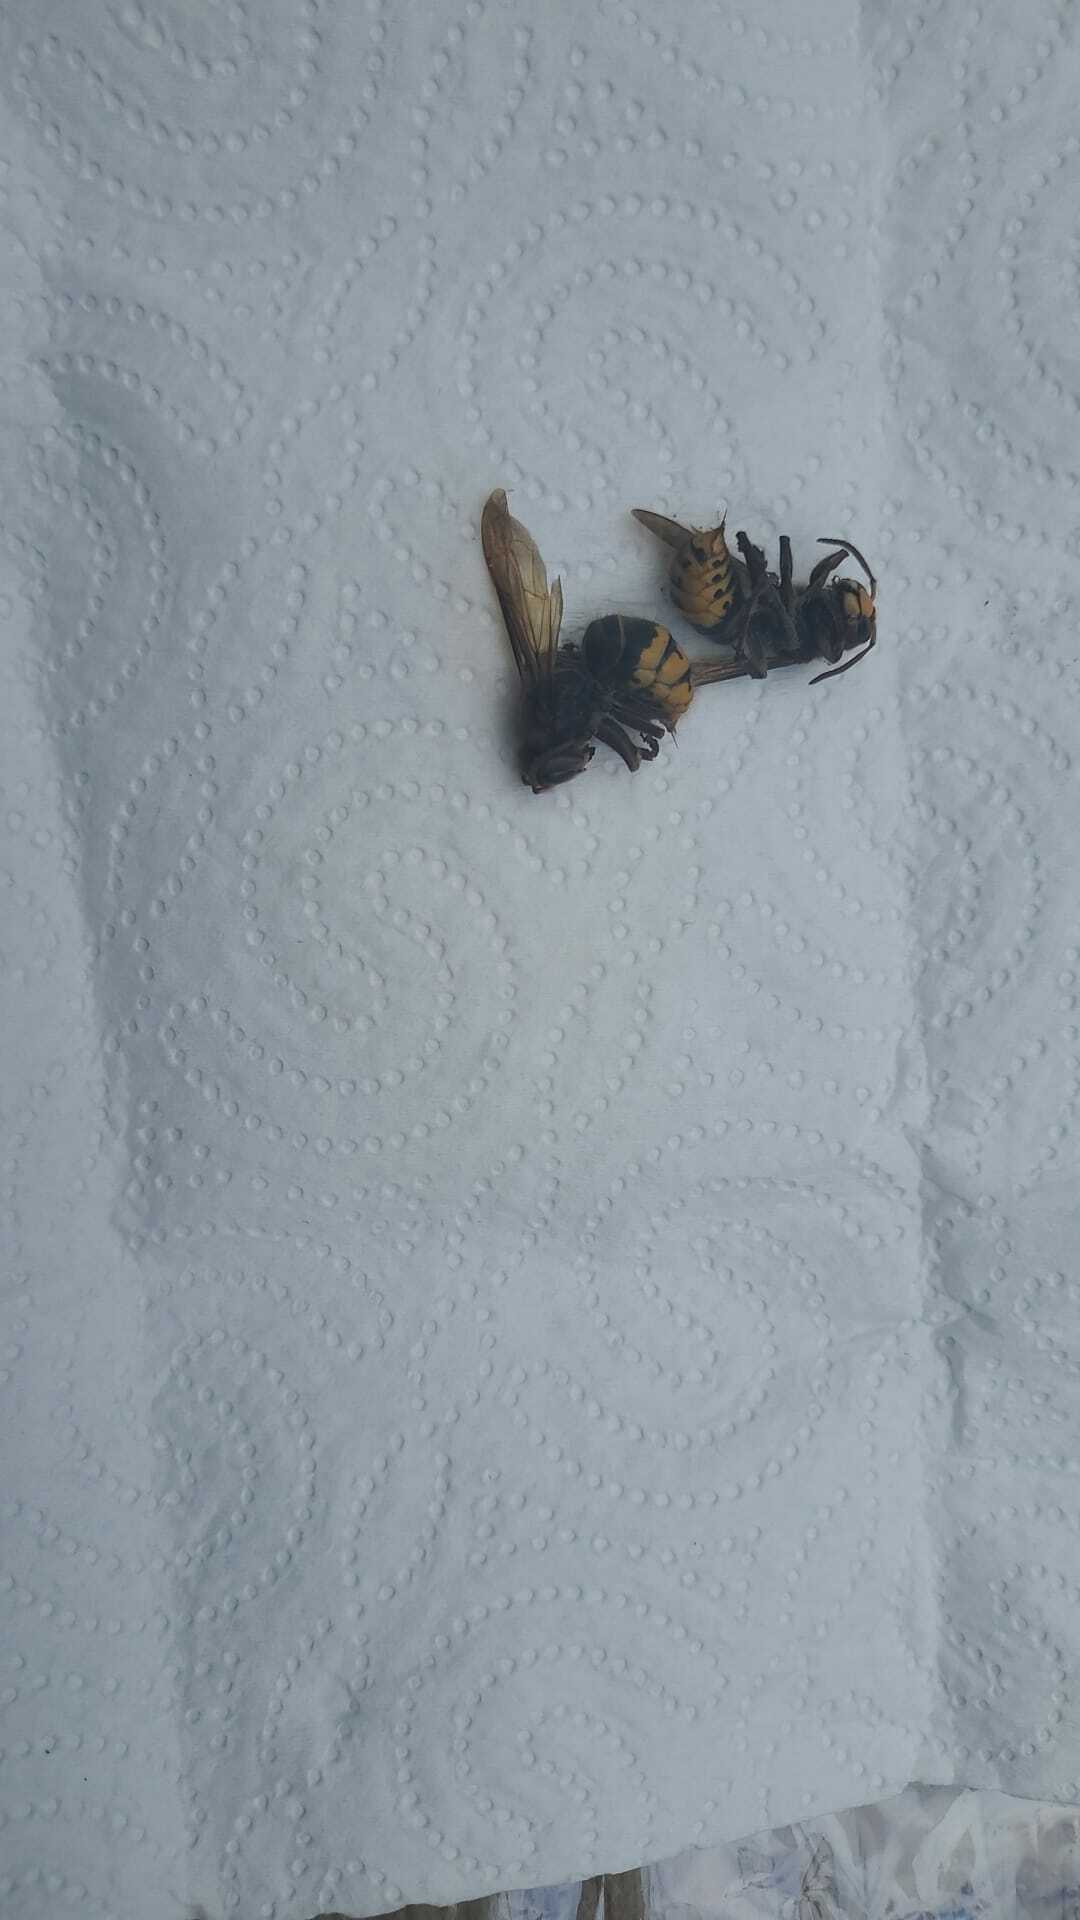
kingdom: Animalia
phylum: Arthropoda
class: Insecta
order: Hymenoptera
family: Vespidae
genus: Vespa
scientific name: Vespa crabro
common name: Hornet
